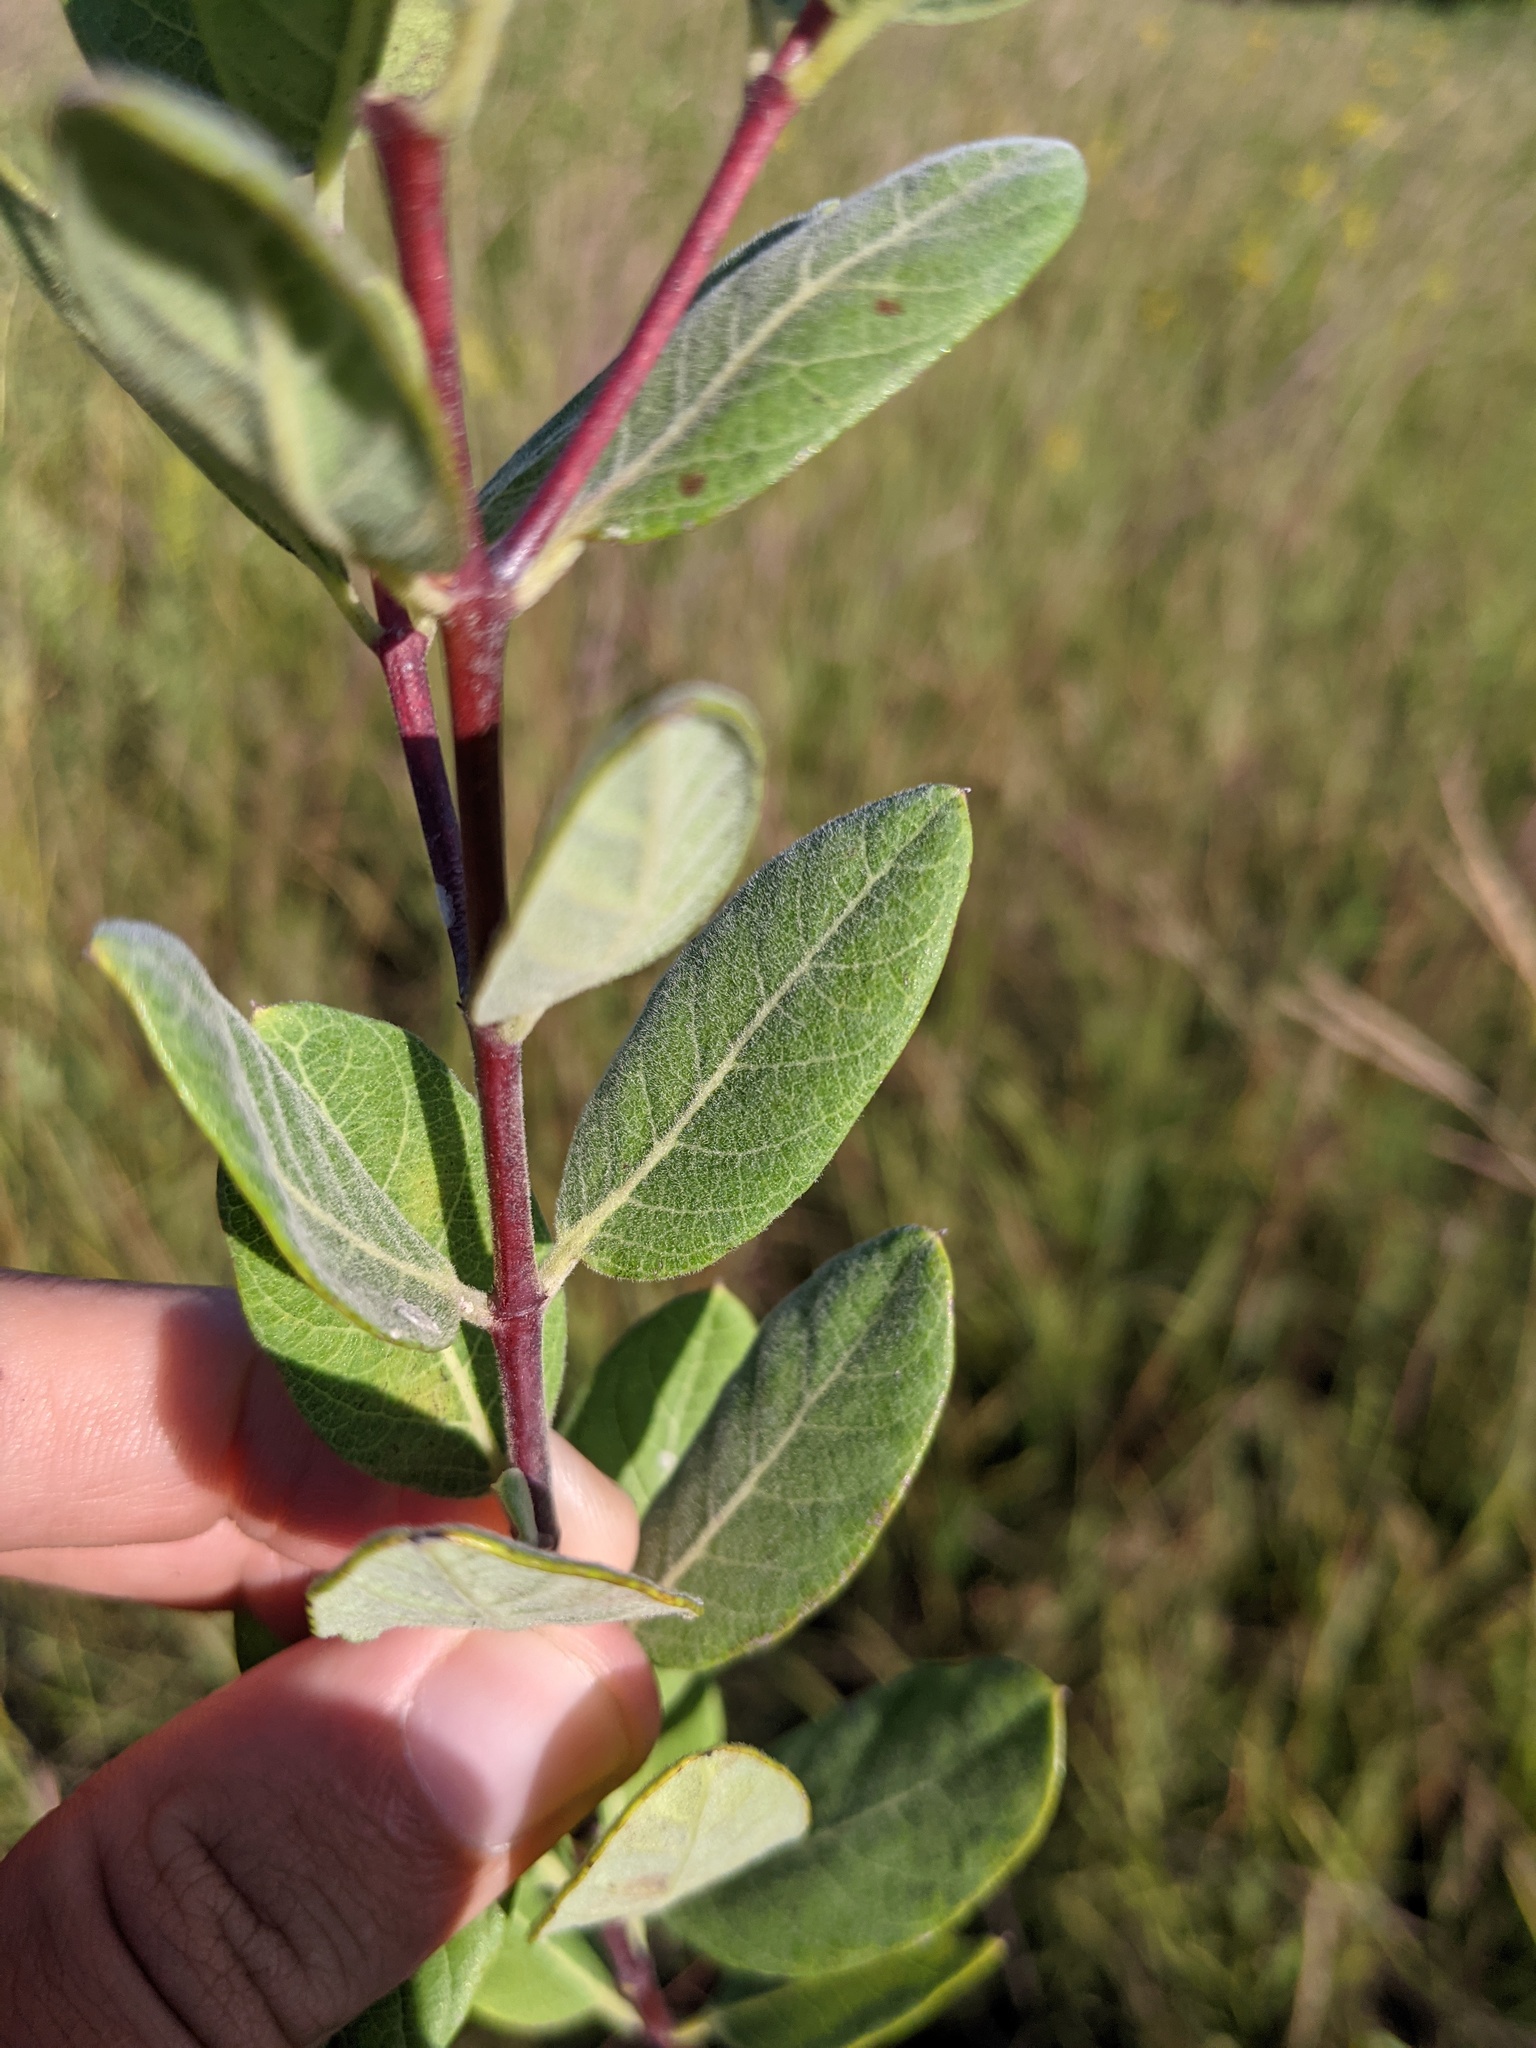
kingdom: Plantae
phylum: Tracheophyta
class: Magnoliopsida
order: Gentianales
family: Apocynaceae
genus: Apocynum
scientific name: Apocynum cannabinum
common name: Hemp dogbane
